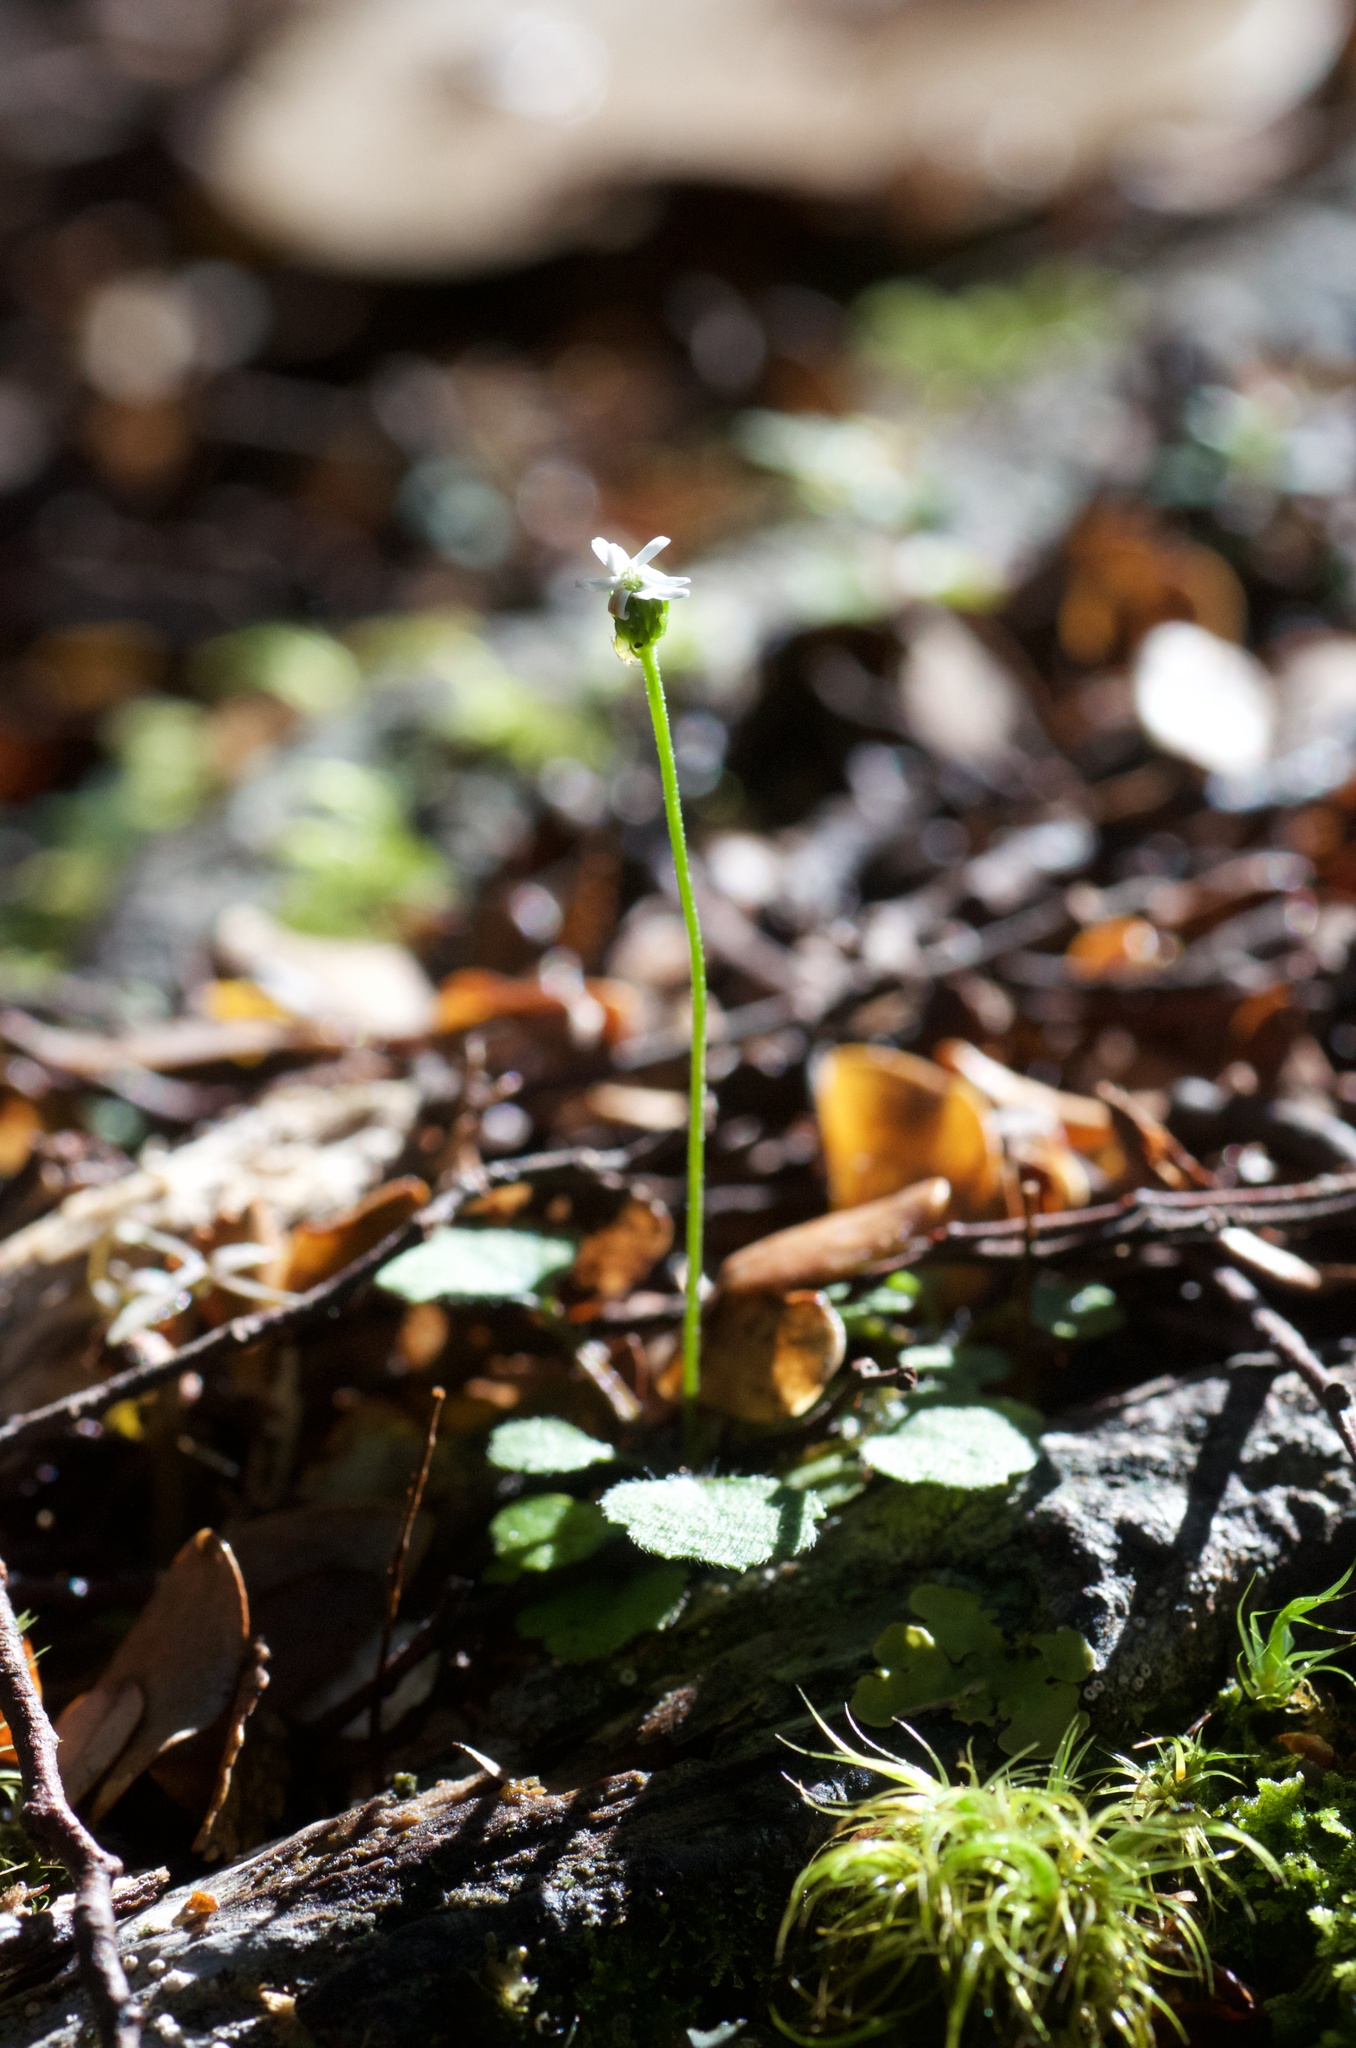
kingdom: Plantae
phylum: Tracheophyta
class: Magnoliopsida
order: Asterales
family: Asteraceae
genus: Lagenophora
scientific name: Lagenophora strangulata
